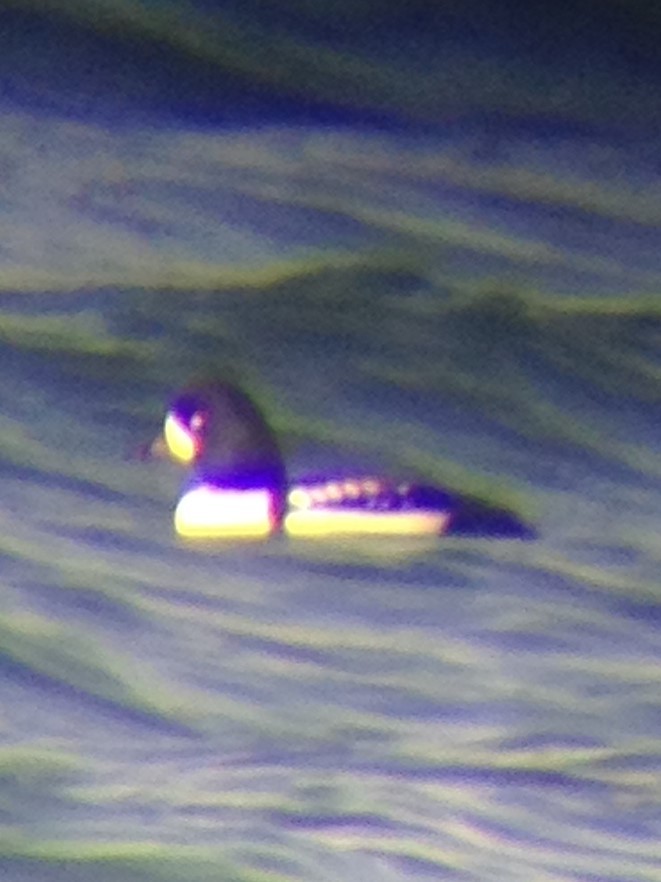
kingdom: Animalia
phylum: Chordata
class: Aves
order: Anseriformes
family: Anatidae
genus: Bucephala
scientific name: Bucephala islandica
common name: Barrow's goldeneye
